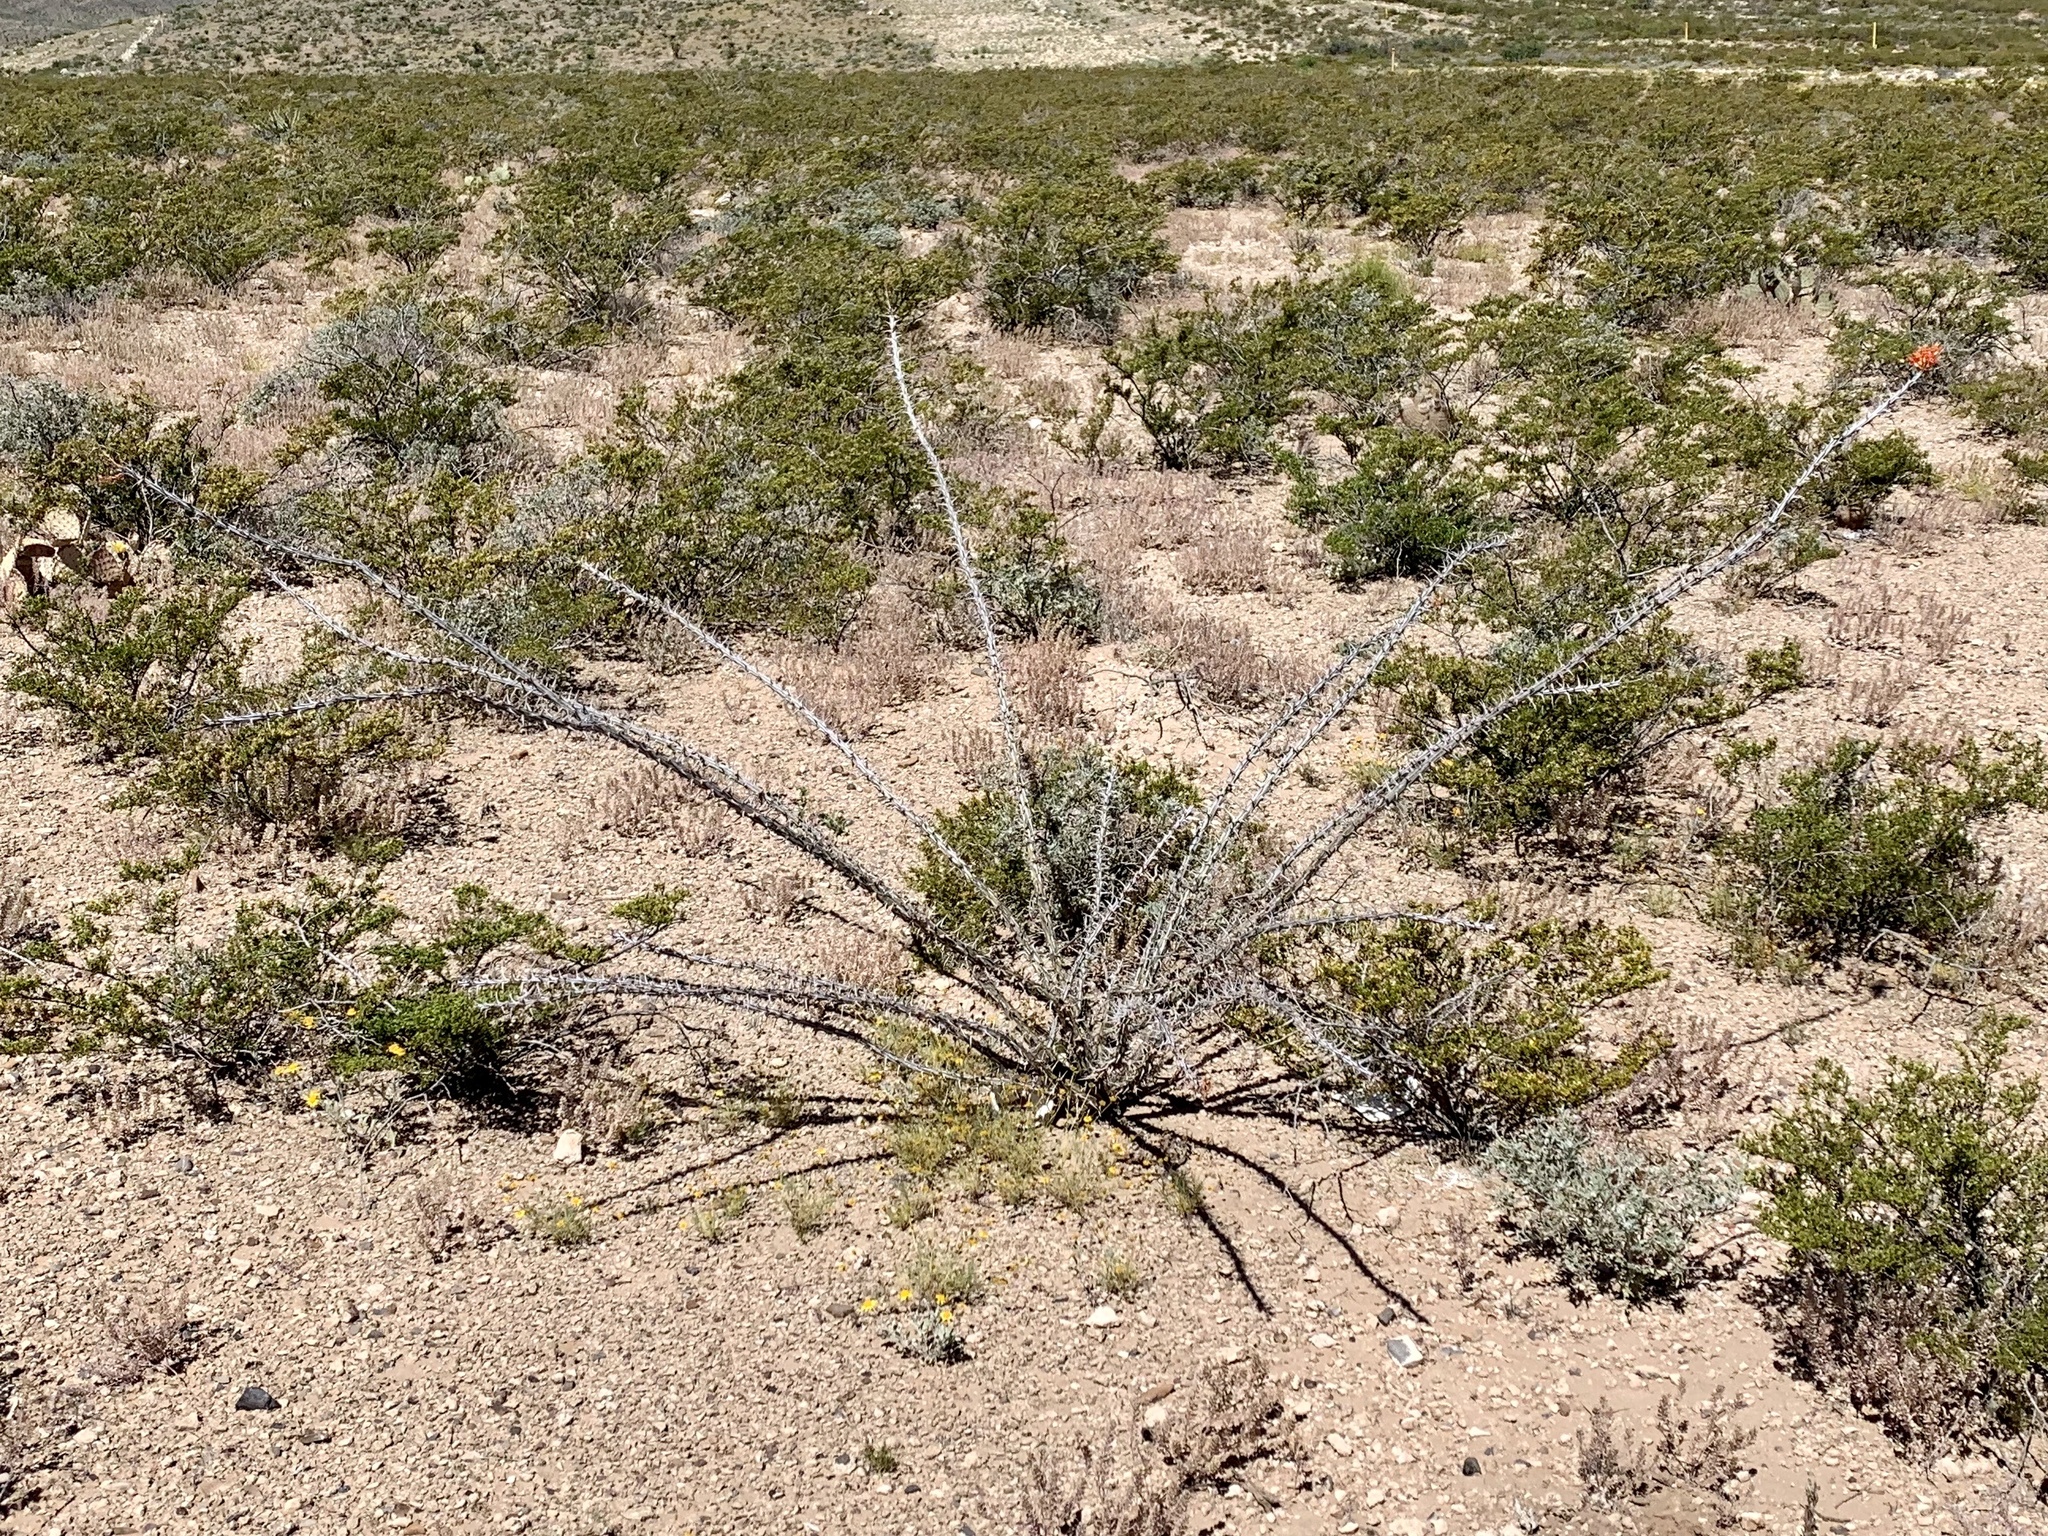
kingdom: Plantae
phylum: Tracheophyta
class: Magnoliopsida
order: Ericales
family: Fouquieriaceae
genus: Fouquieria
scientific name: Fouquieria splendens
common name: Vine-cactus
